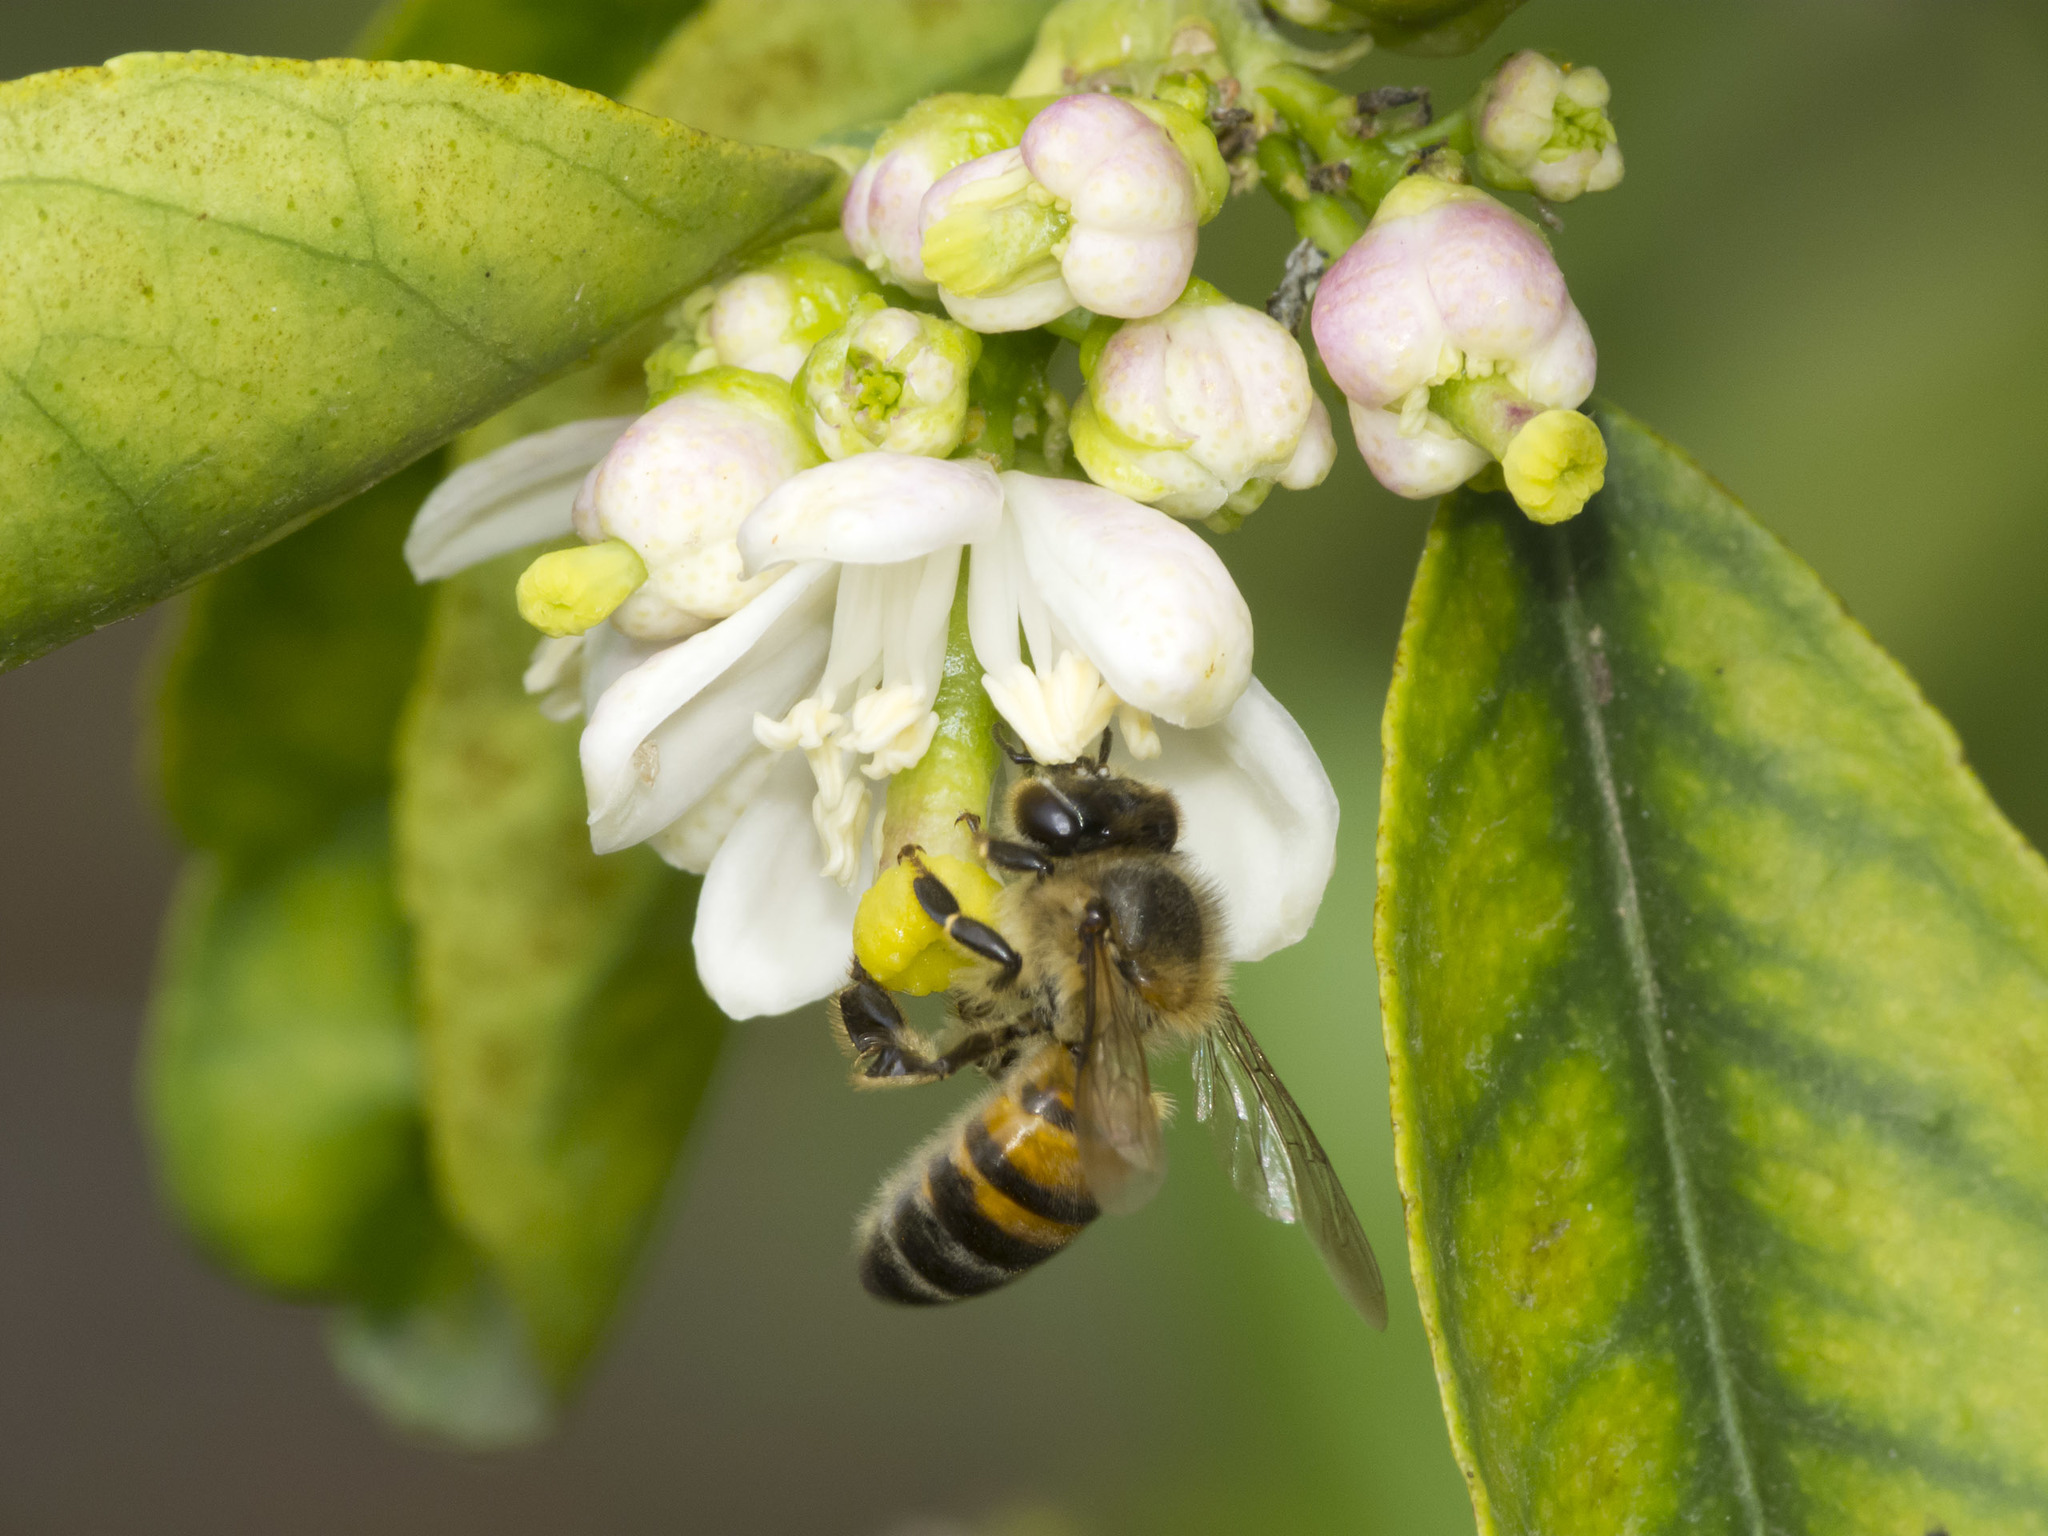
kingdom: Animalia
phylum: Arthropoda
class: Insecta
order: Hymenoptera
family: Apidae
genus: Apis
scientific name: Apis mellifera
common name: Honey bee
